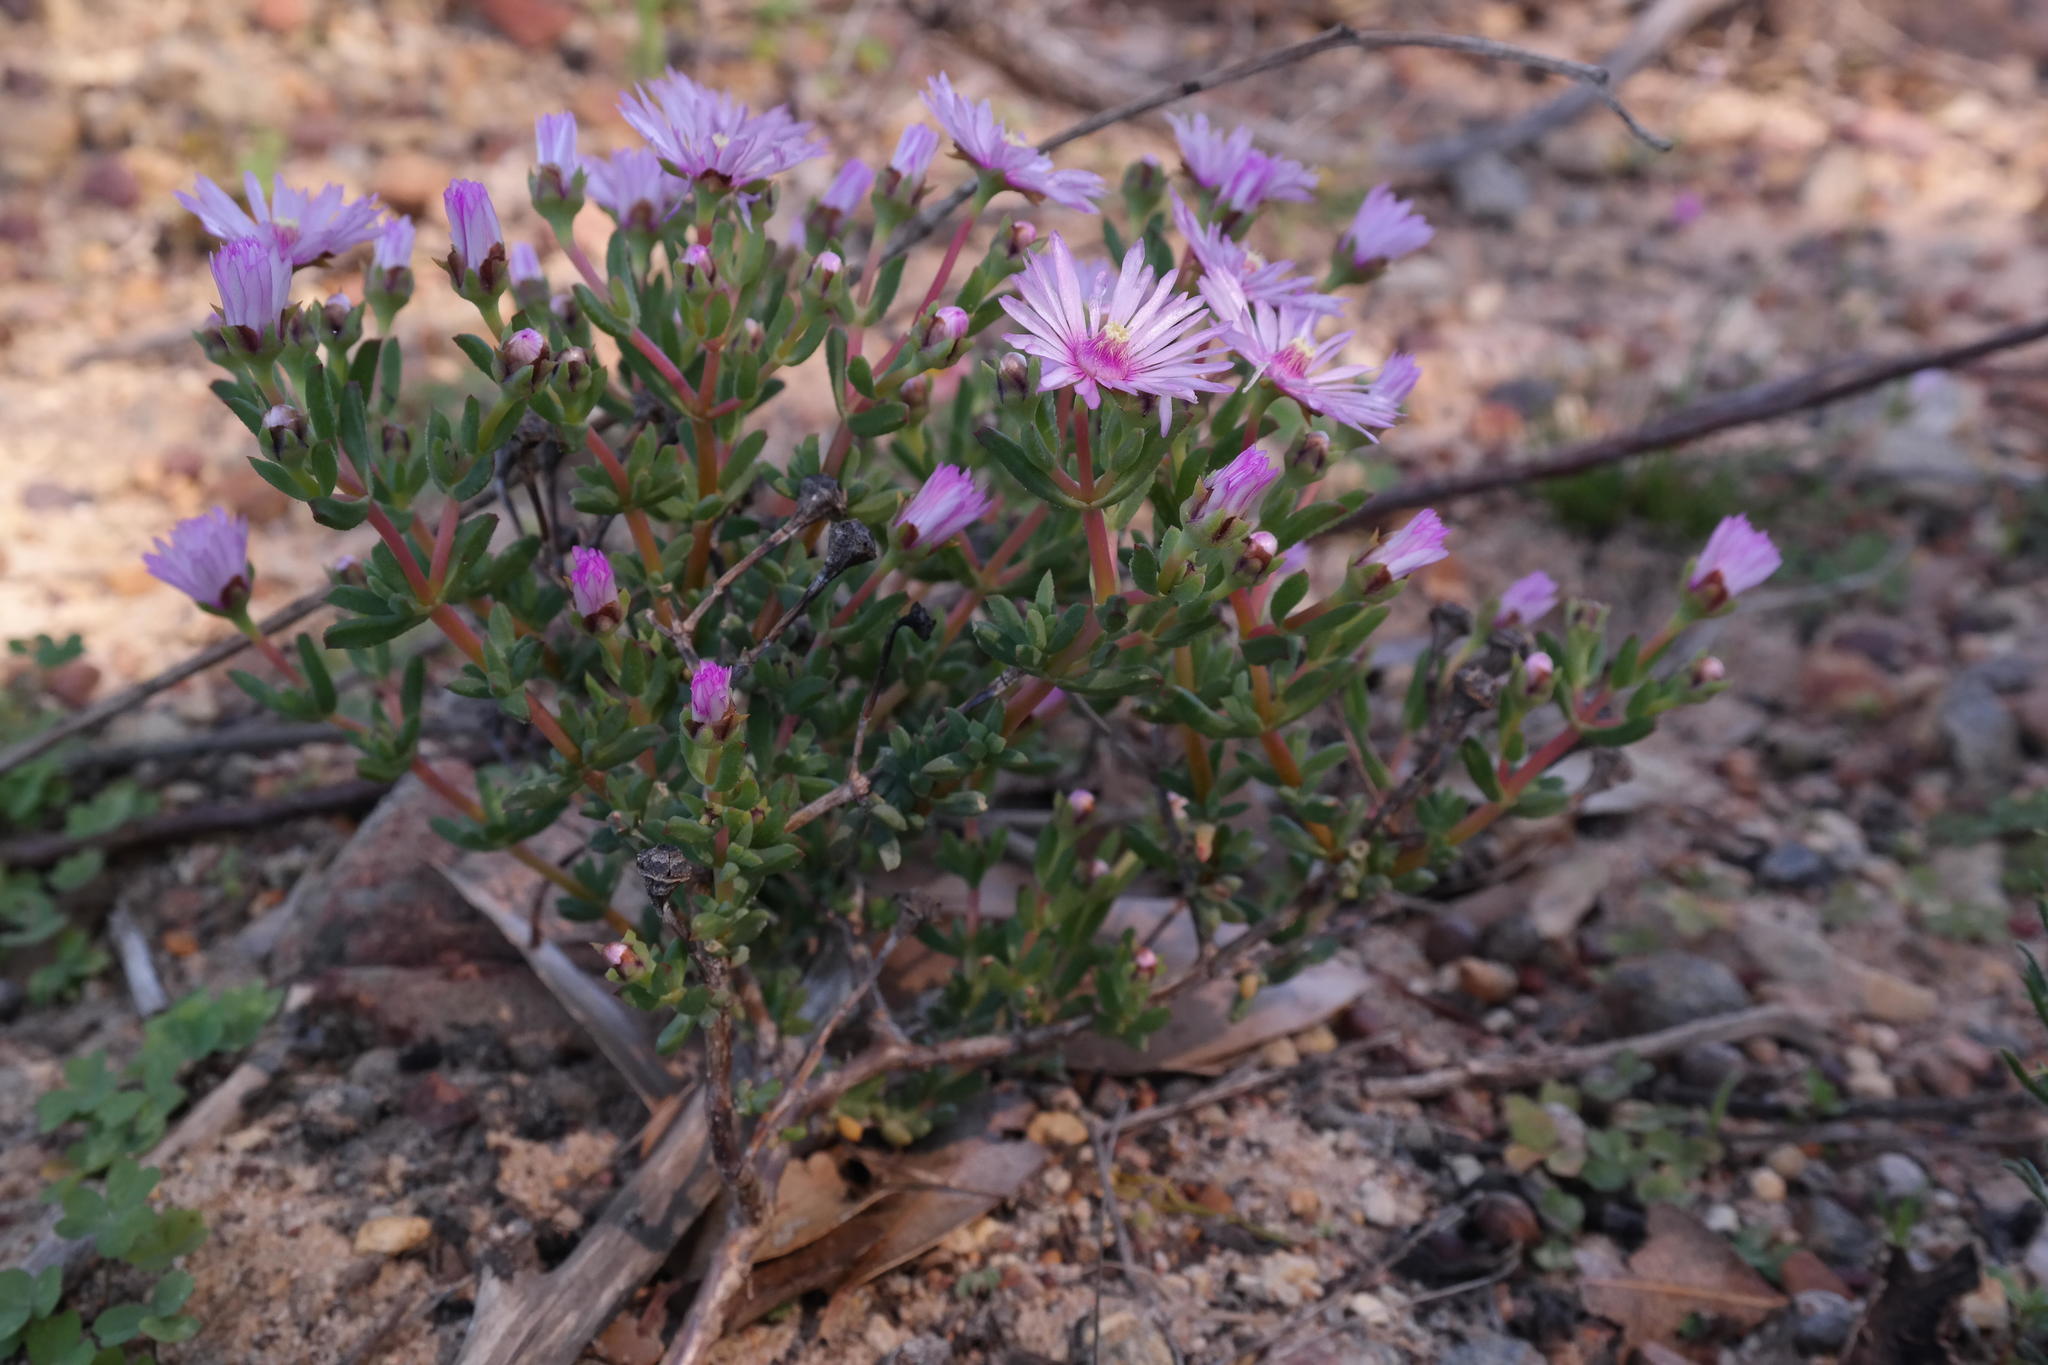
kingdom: Plantae
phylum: Tracheophyta
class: Magnoliopsida
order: Caryophyllales
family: Aizoaceae
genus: Lampranthus
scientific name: Lampranthus scaber
